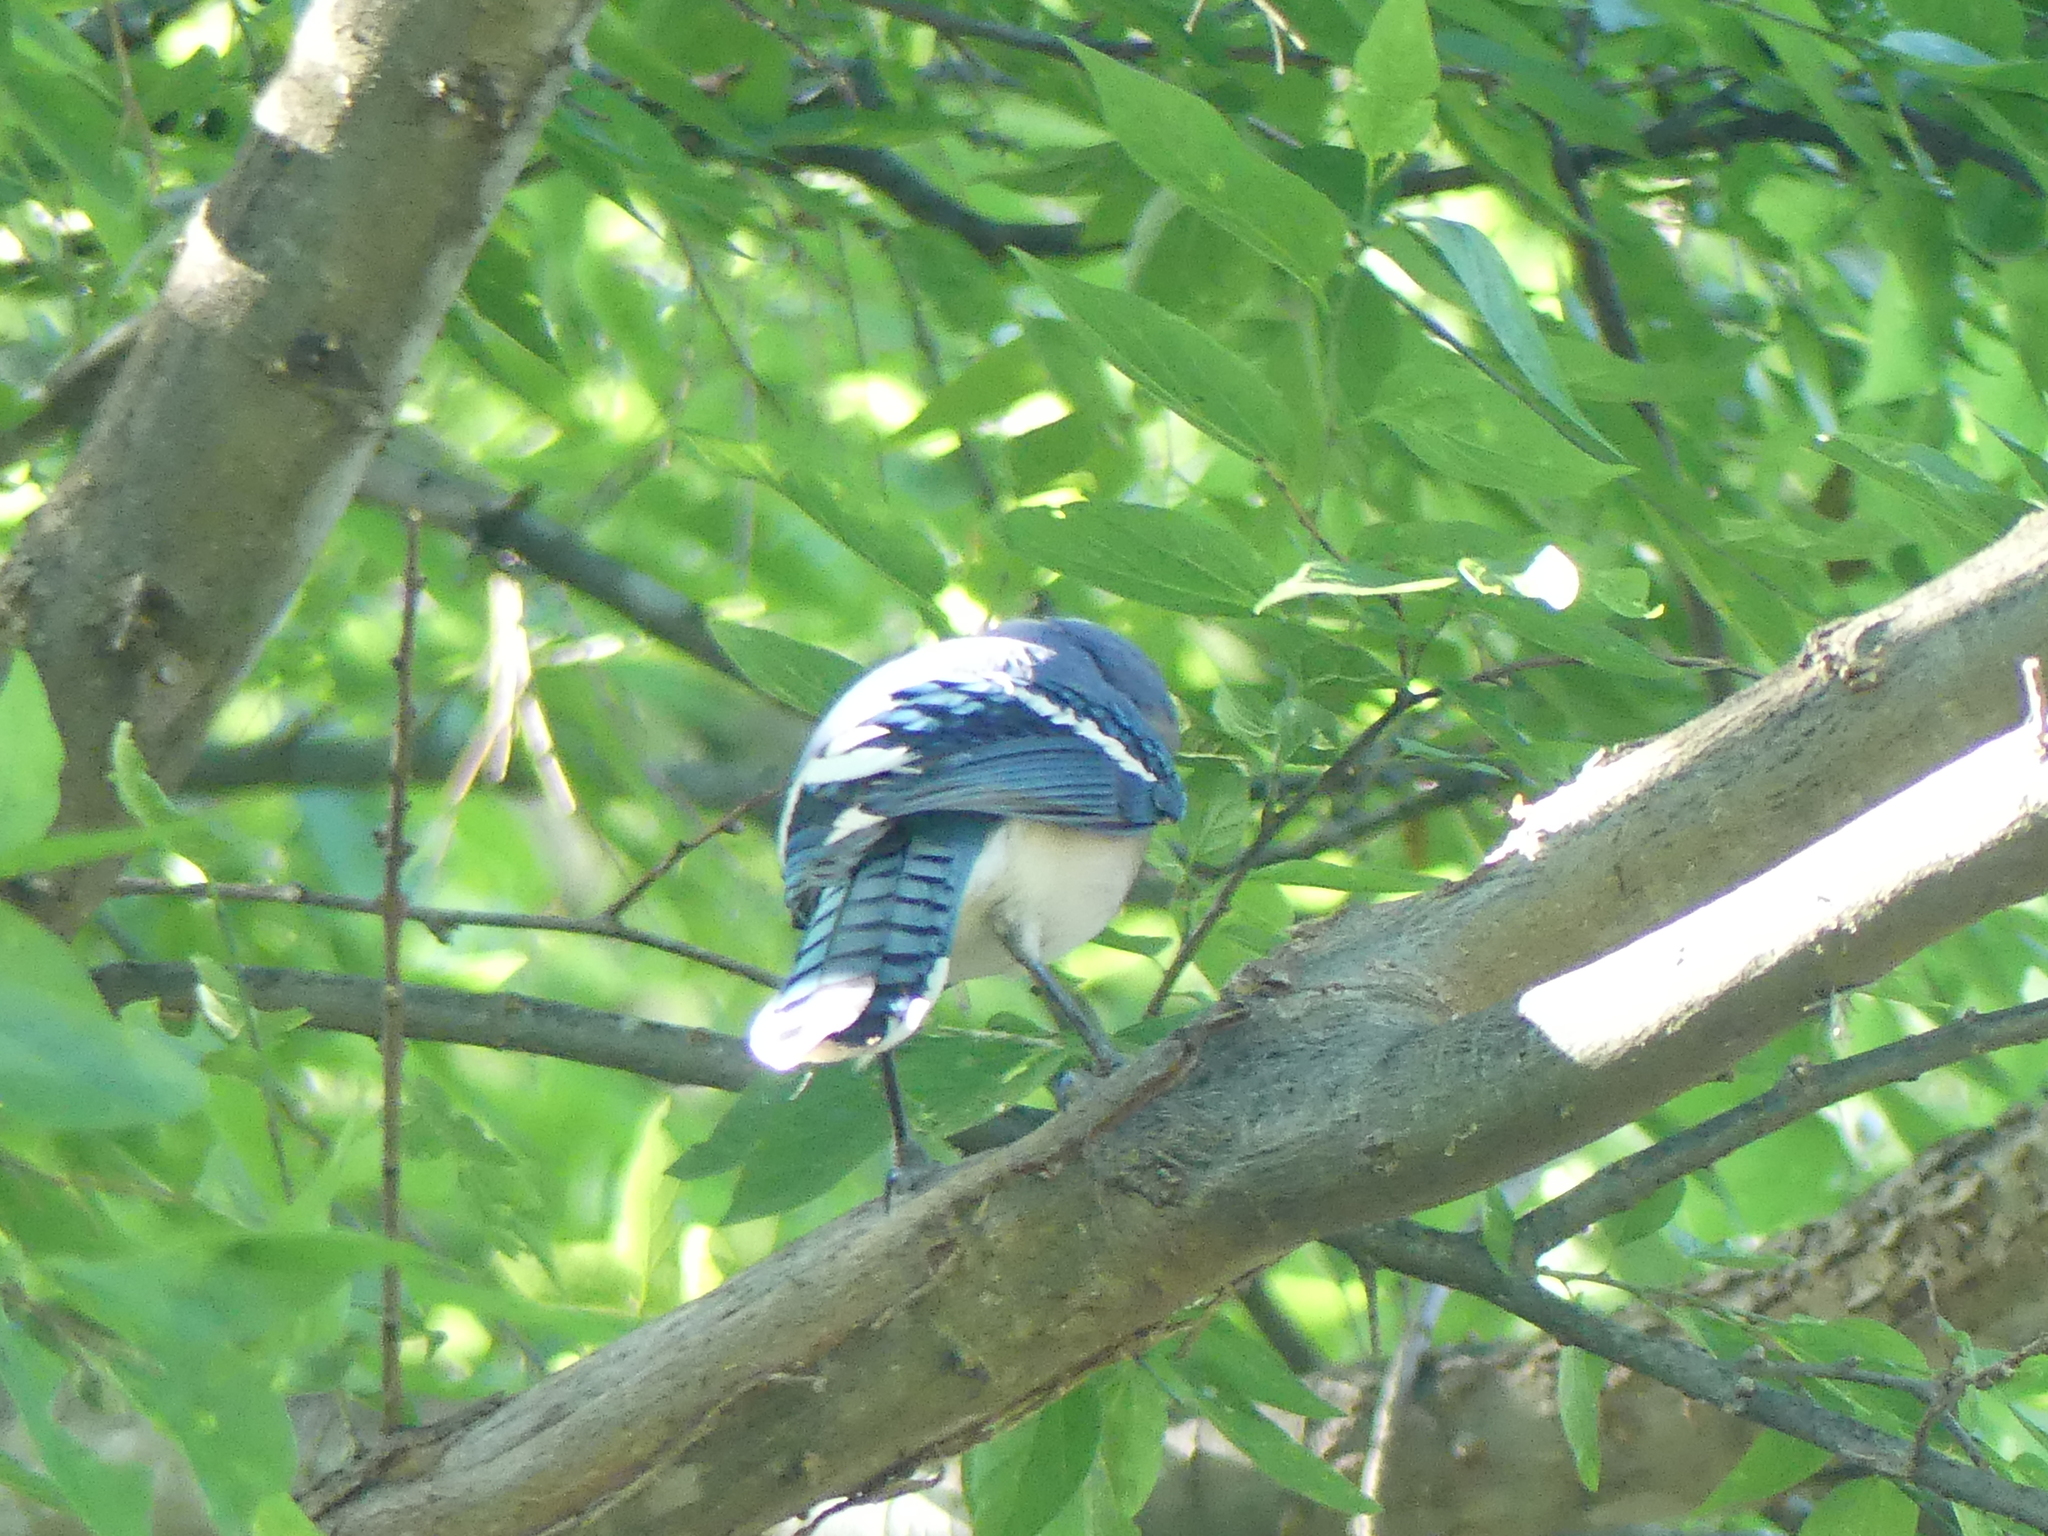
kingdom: Animalia
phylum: Chordata
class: Aves
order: Passeriformes
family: Corvidae
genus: Cyanocitta
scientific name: Cyanocitta cristata
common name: Blue jay
